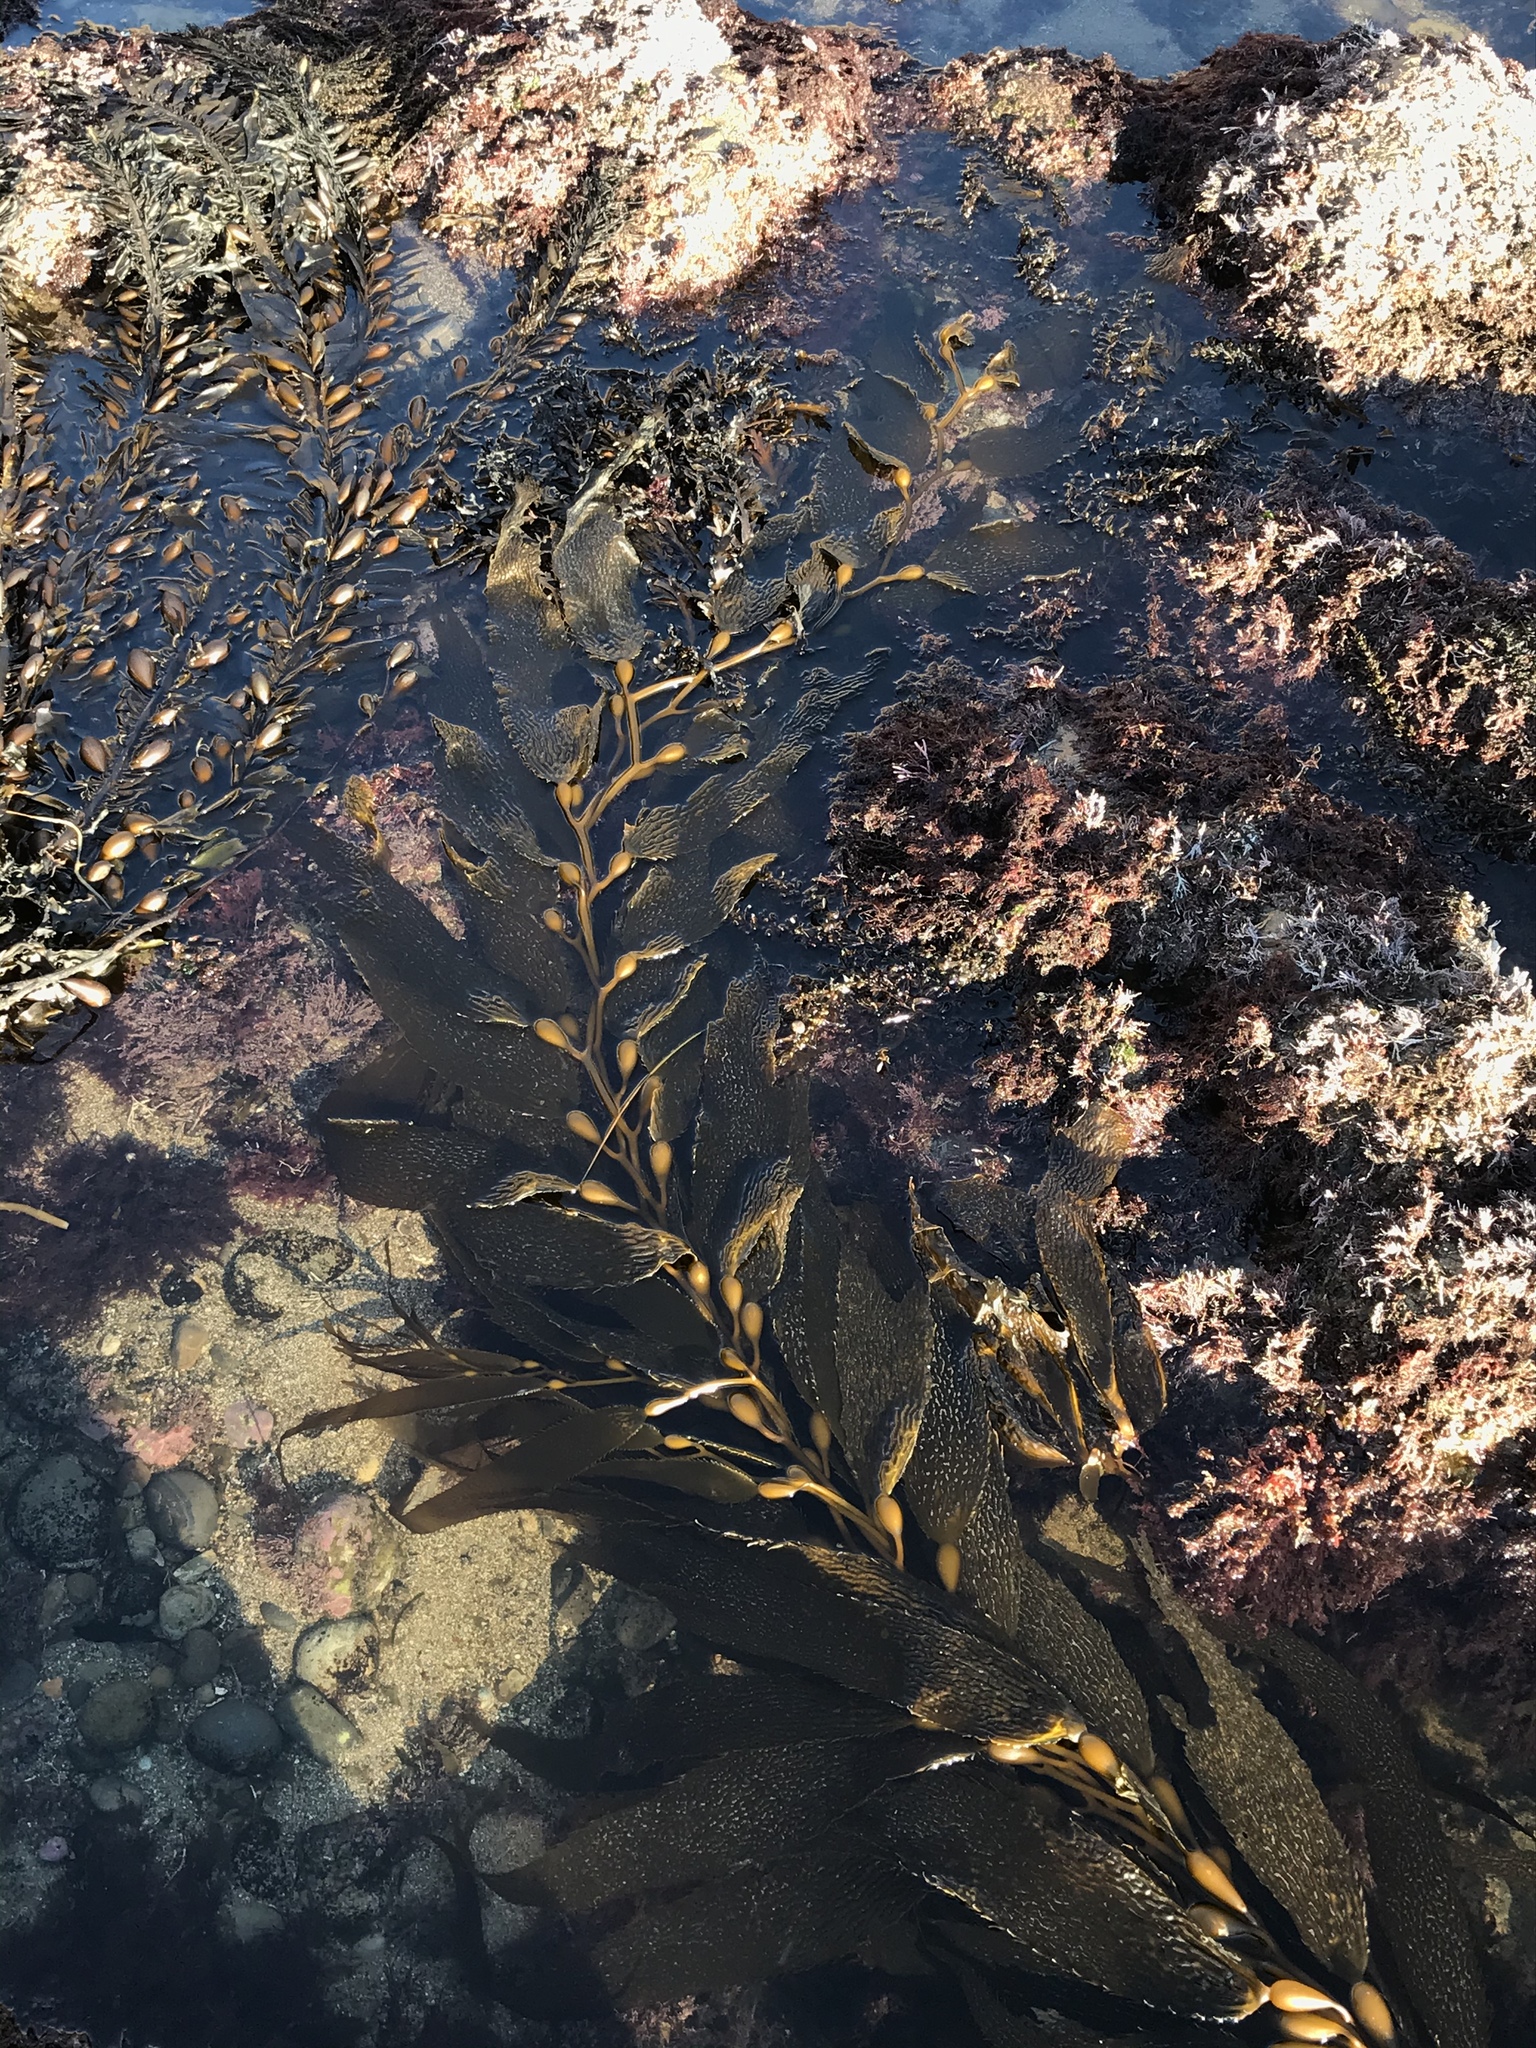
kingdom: Chromista
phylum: Ochrophyta
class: Phaeophyceae
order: Laminariales
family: Laminariaceae
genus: Macrocystis
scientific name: Macrocystis pyrifera
